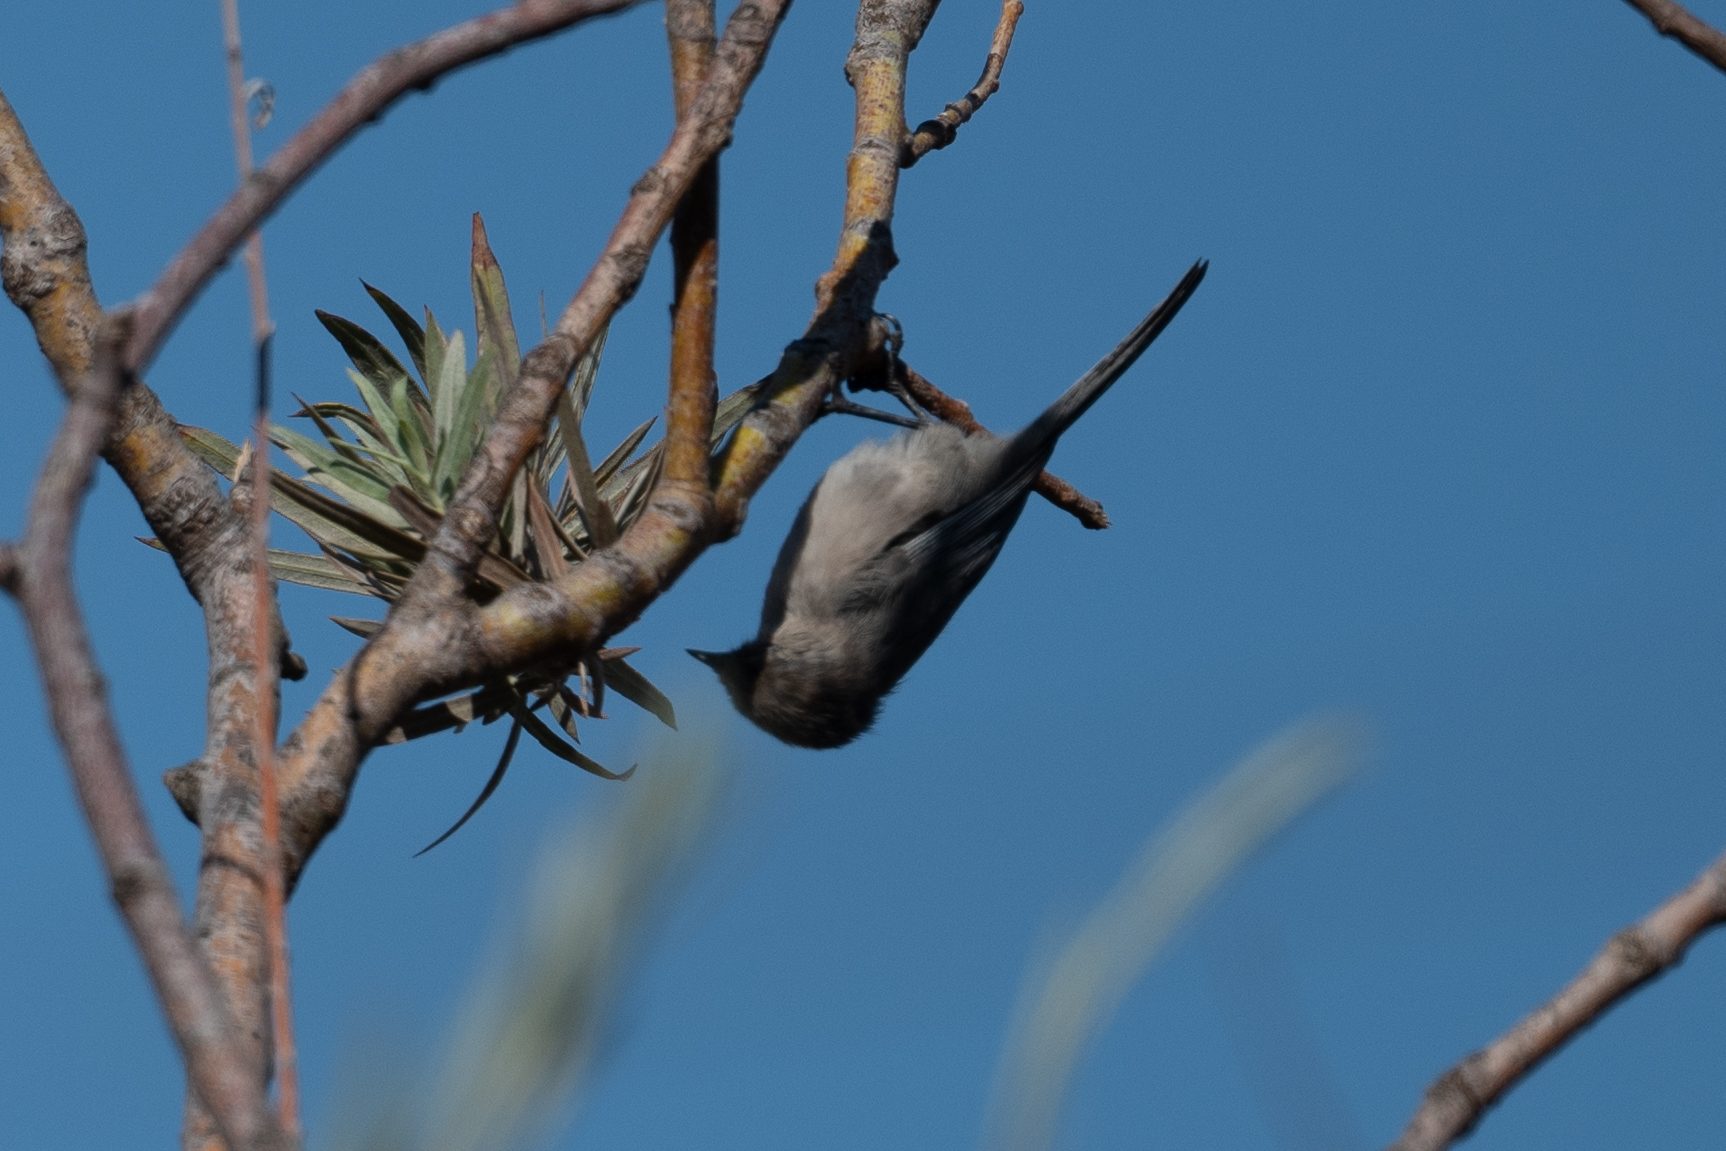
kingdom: Animalia
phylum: Chordata
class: Aves
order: Passeriformes
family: Aegithalidae
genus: Psaltriparus
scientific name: Psaltriparus minimus
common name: American bushtit
